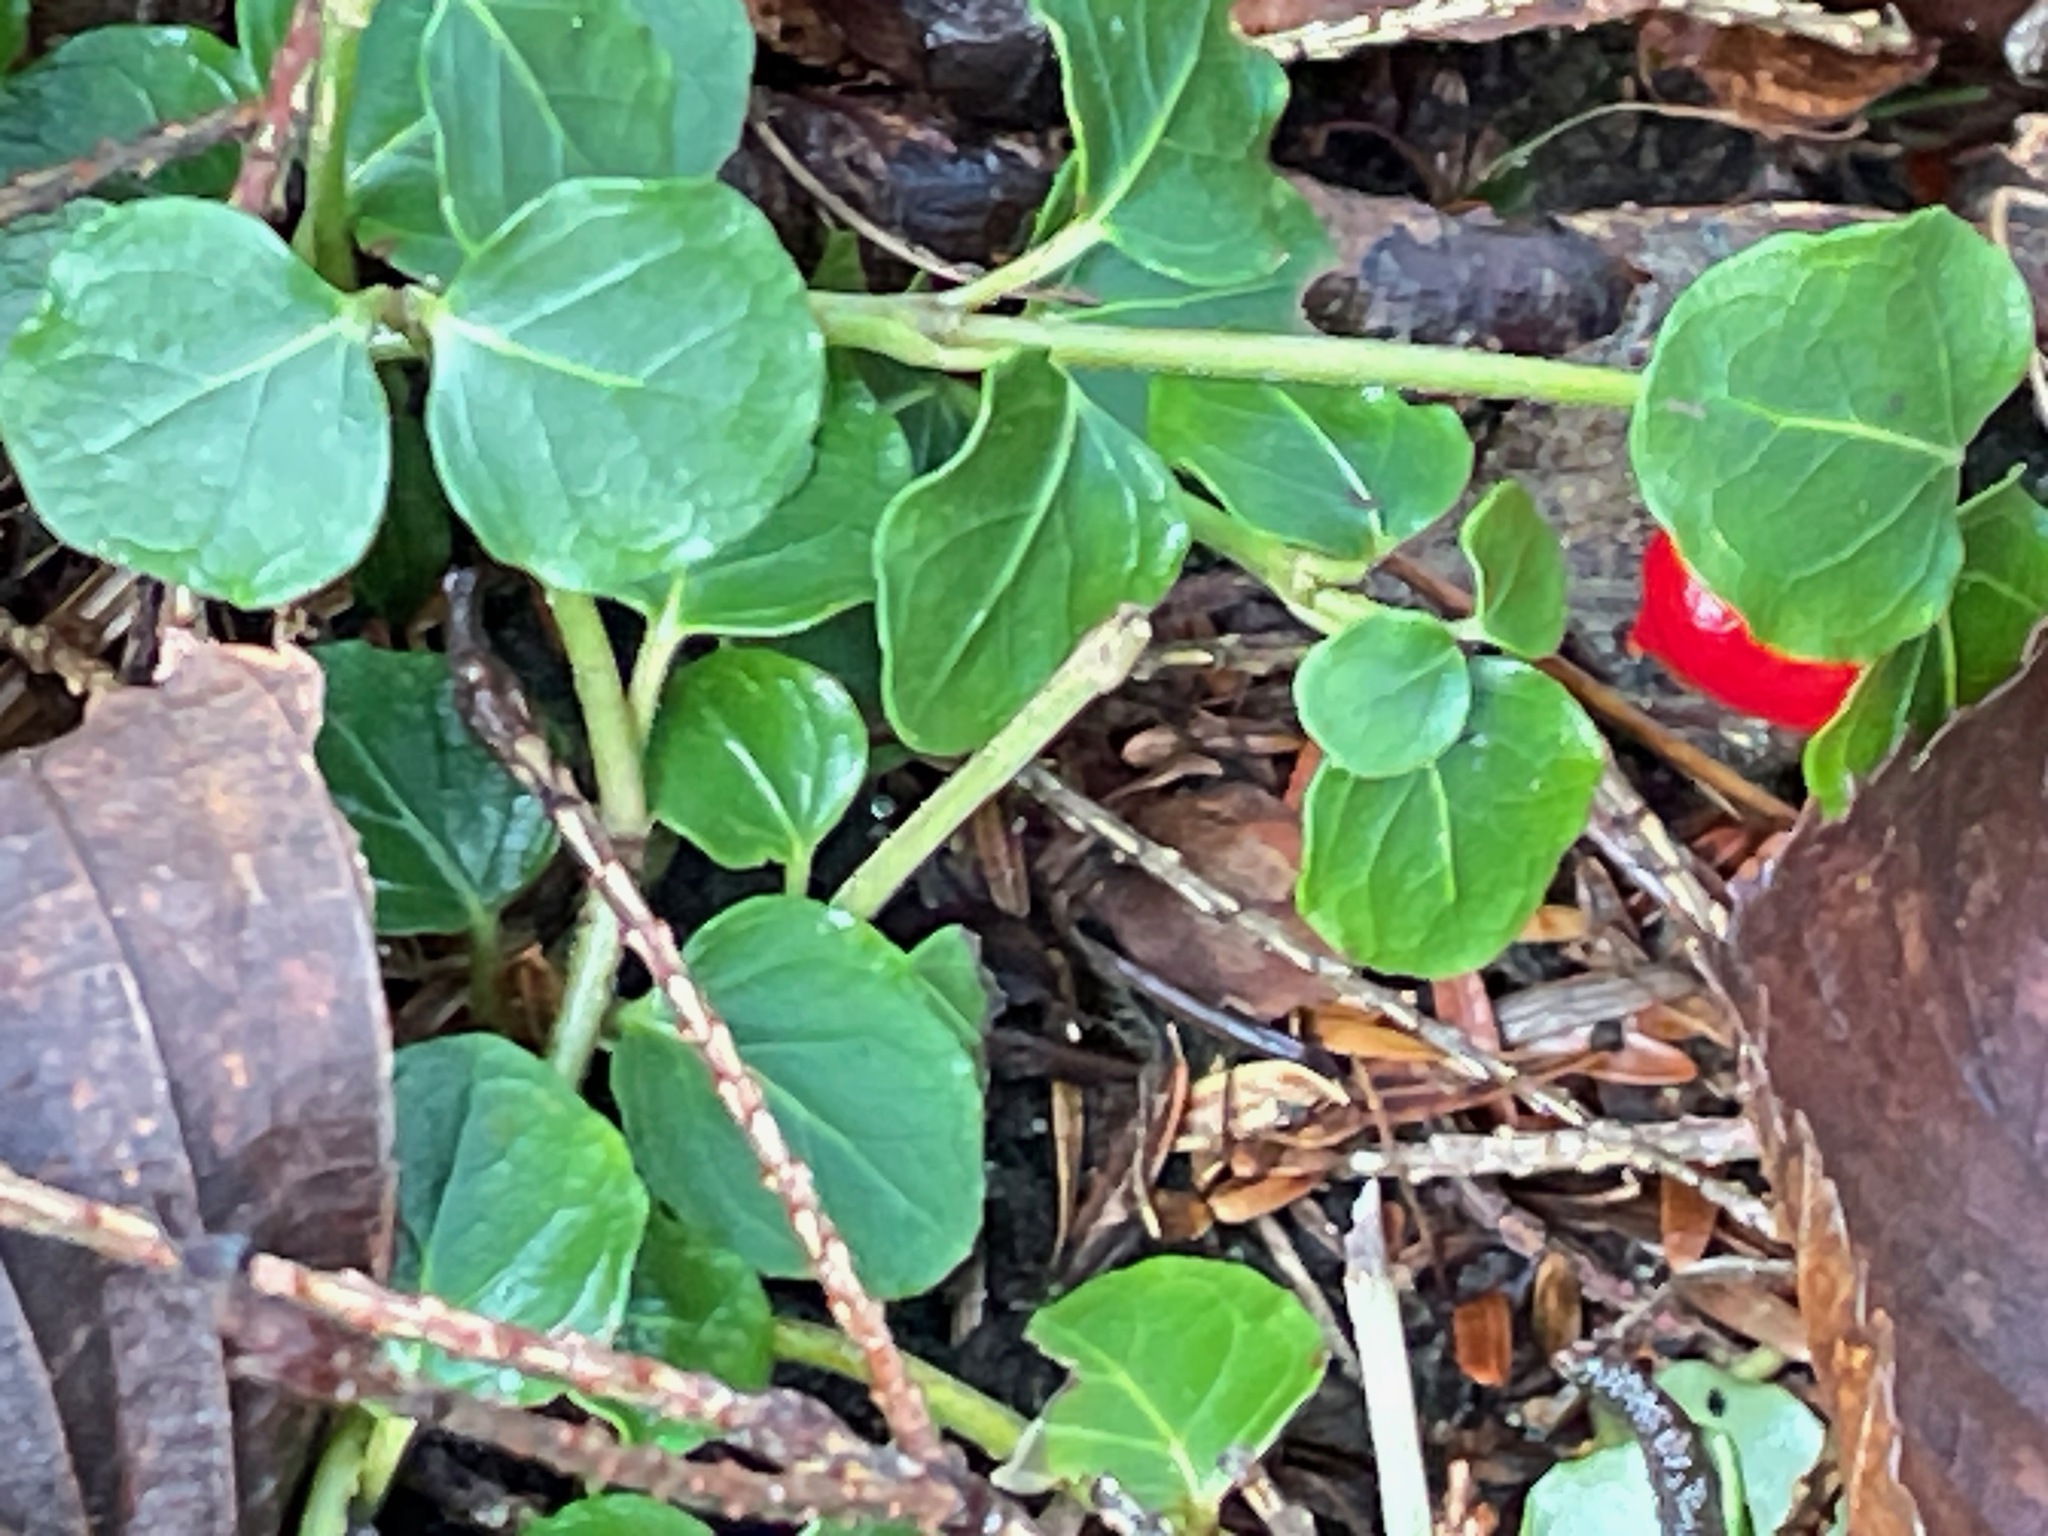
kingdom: Plantae
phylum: Tracheophyta
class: Magnoliopsida
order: Gentianales
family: Rubiaceae
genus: Mitchella
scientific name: Mitchella repens
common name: Partridge-berry
